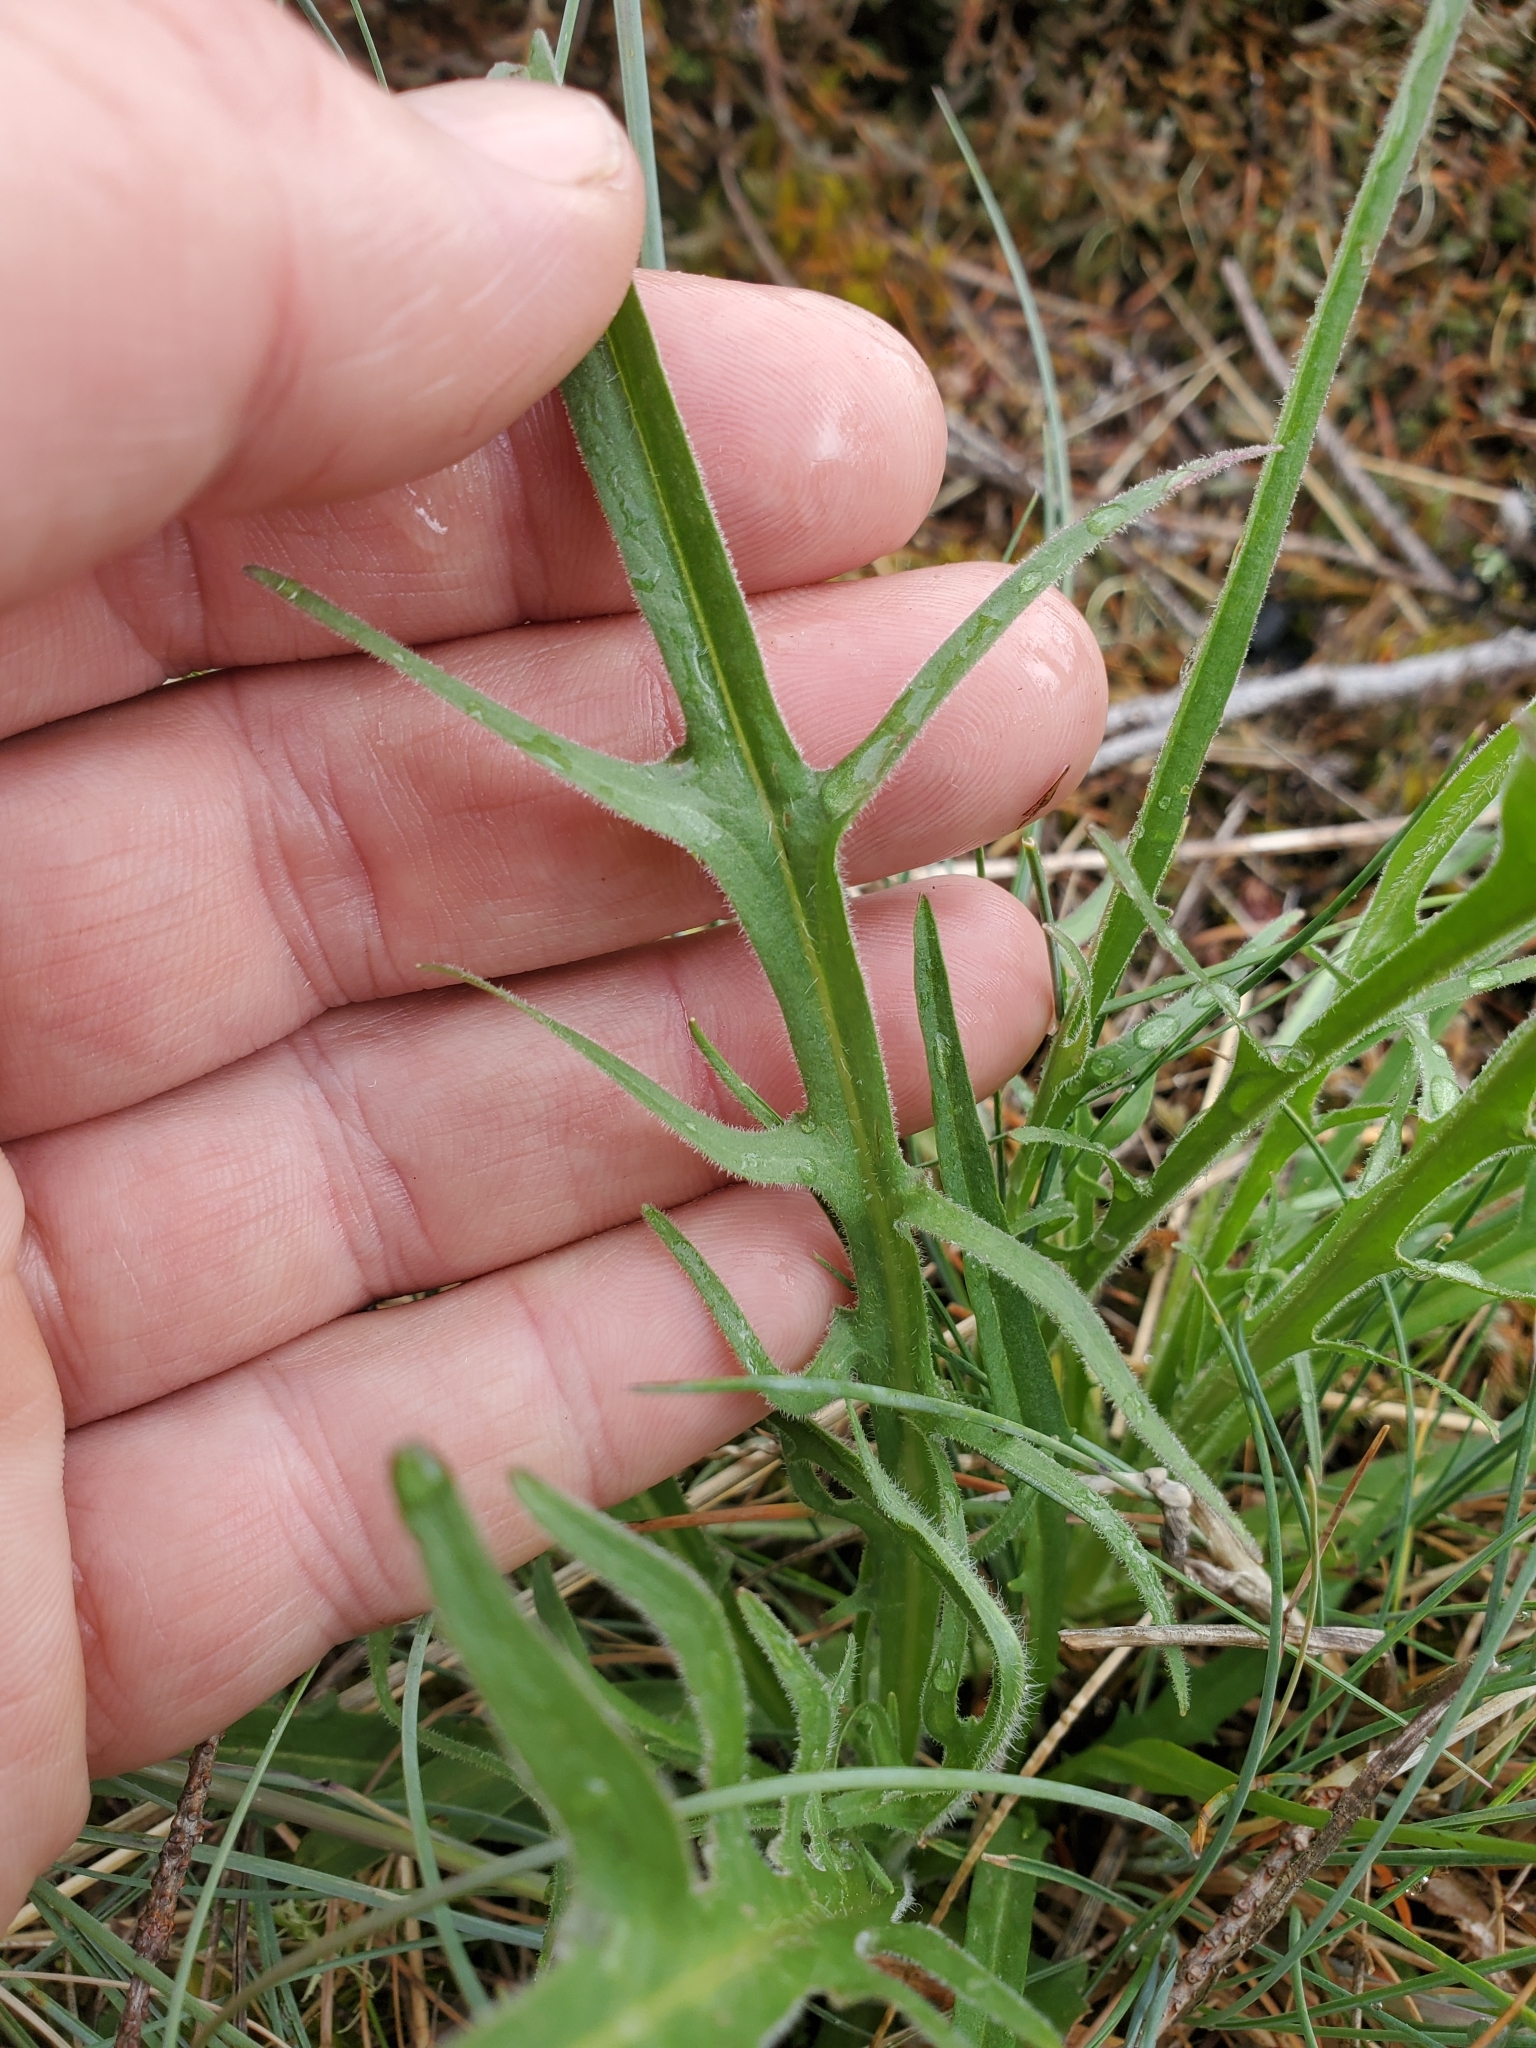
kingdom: Plantae
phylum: Tracheophyta
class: Magnoliopsida
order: Asterales
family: Asteraceae
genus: Agoseris
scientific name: Agoseris grandiflora
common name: Grassland agoseris
